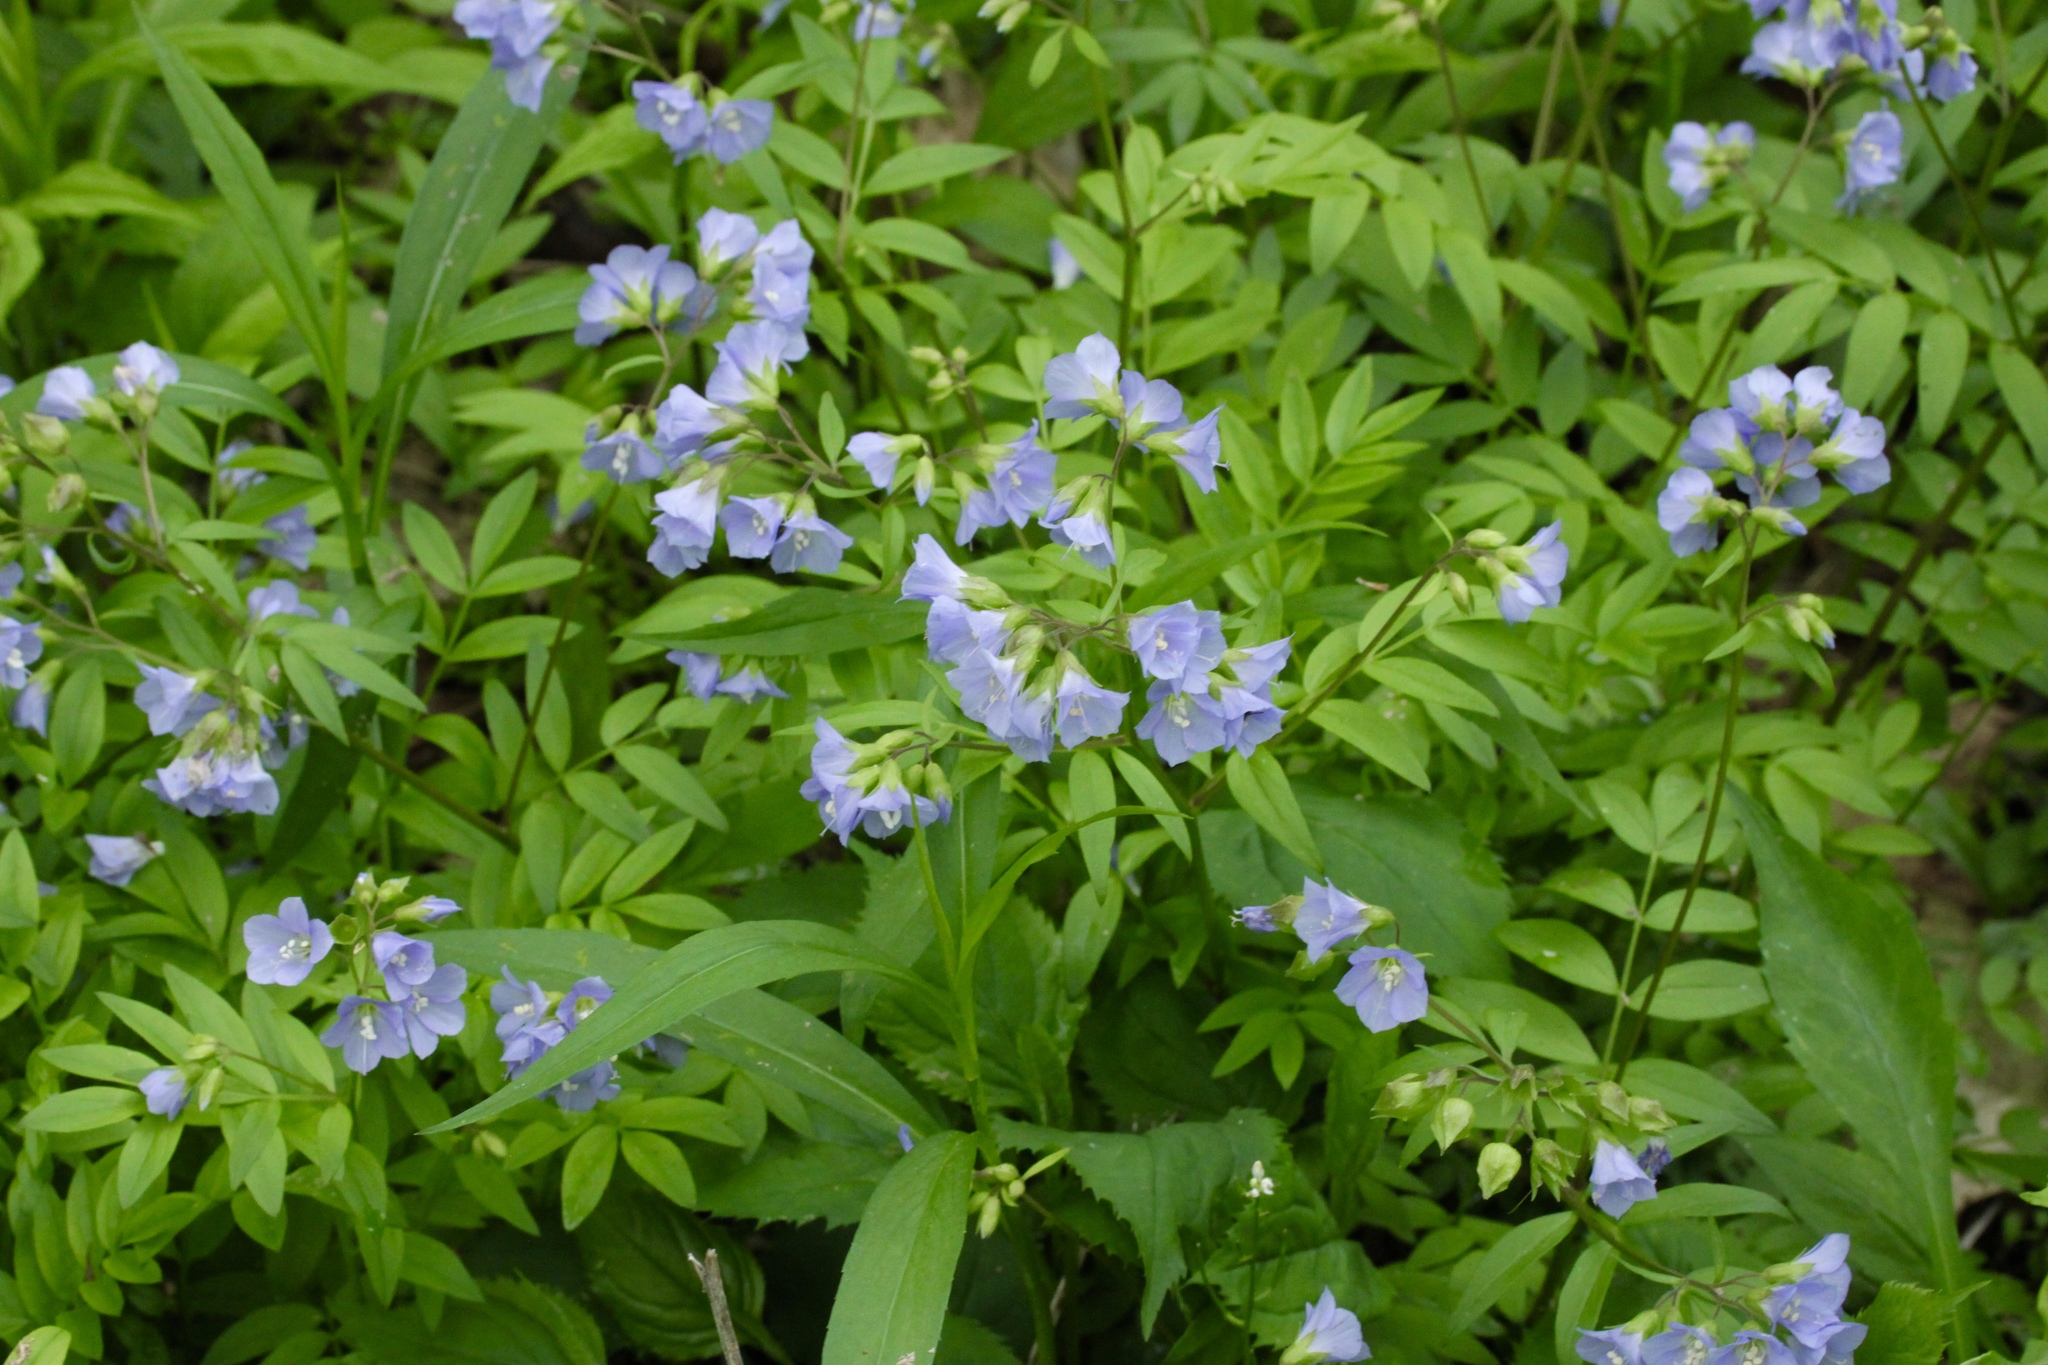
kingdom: Plantae
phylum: Tracheophyta
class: Magnoliopsida
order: Ericales
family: Polemoniaceae
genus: Polemonium
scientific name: Polemonium reptans
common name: Creeping jacob's-ladder
